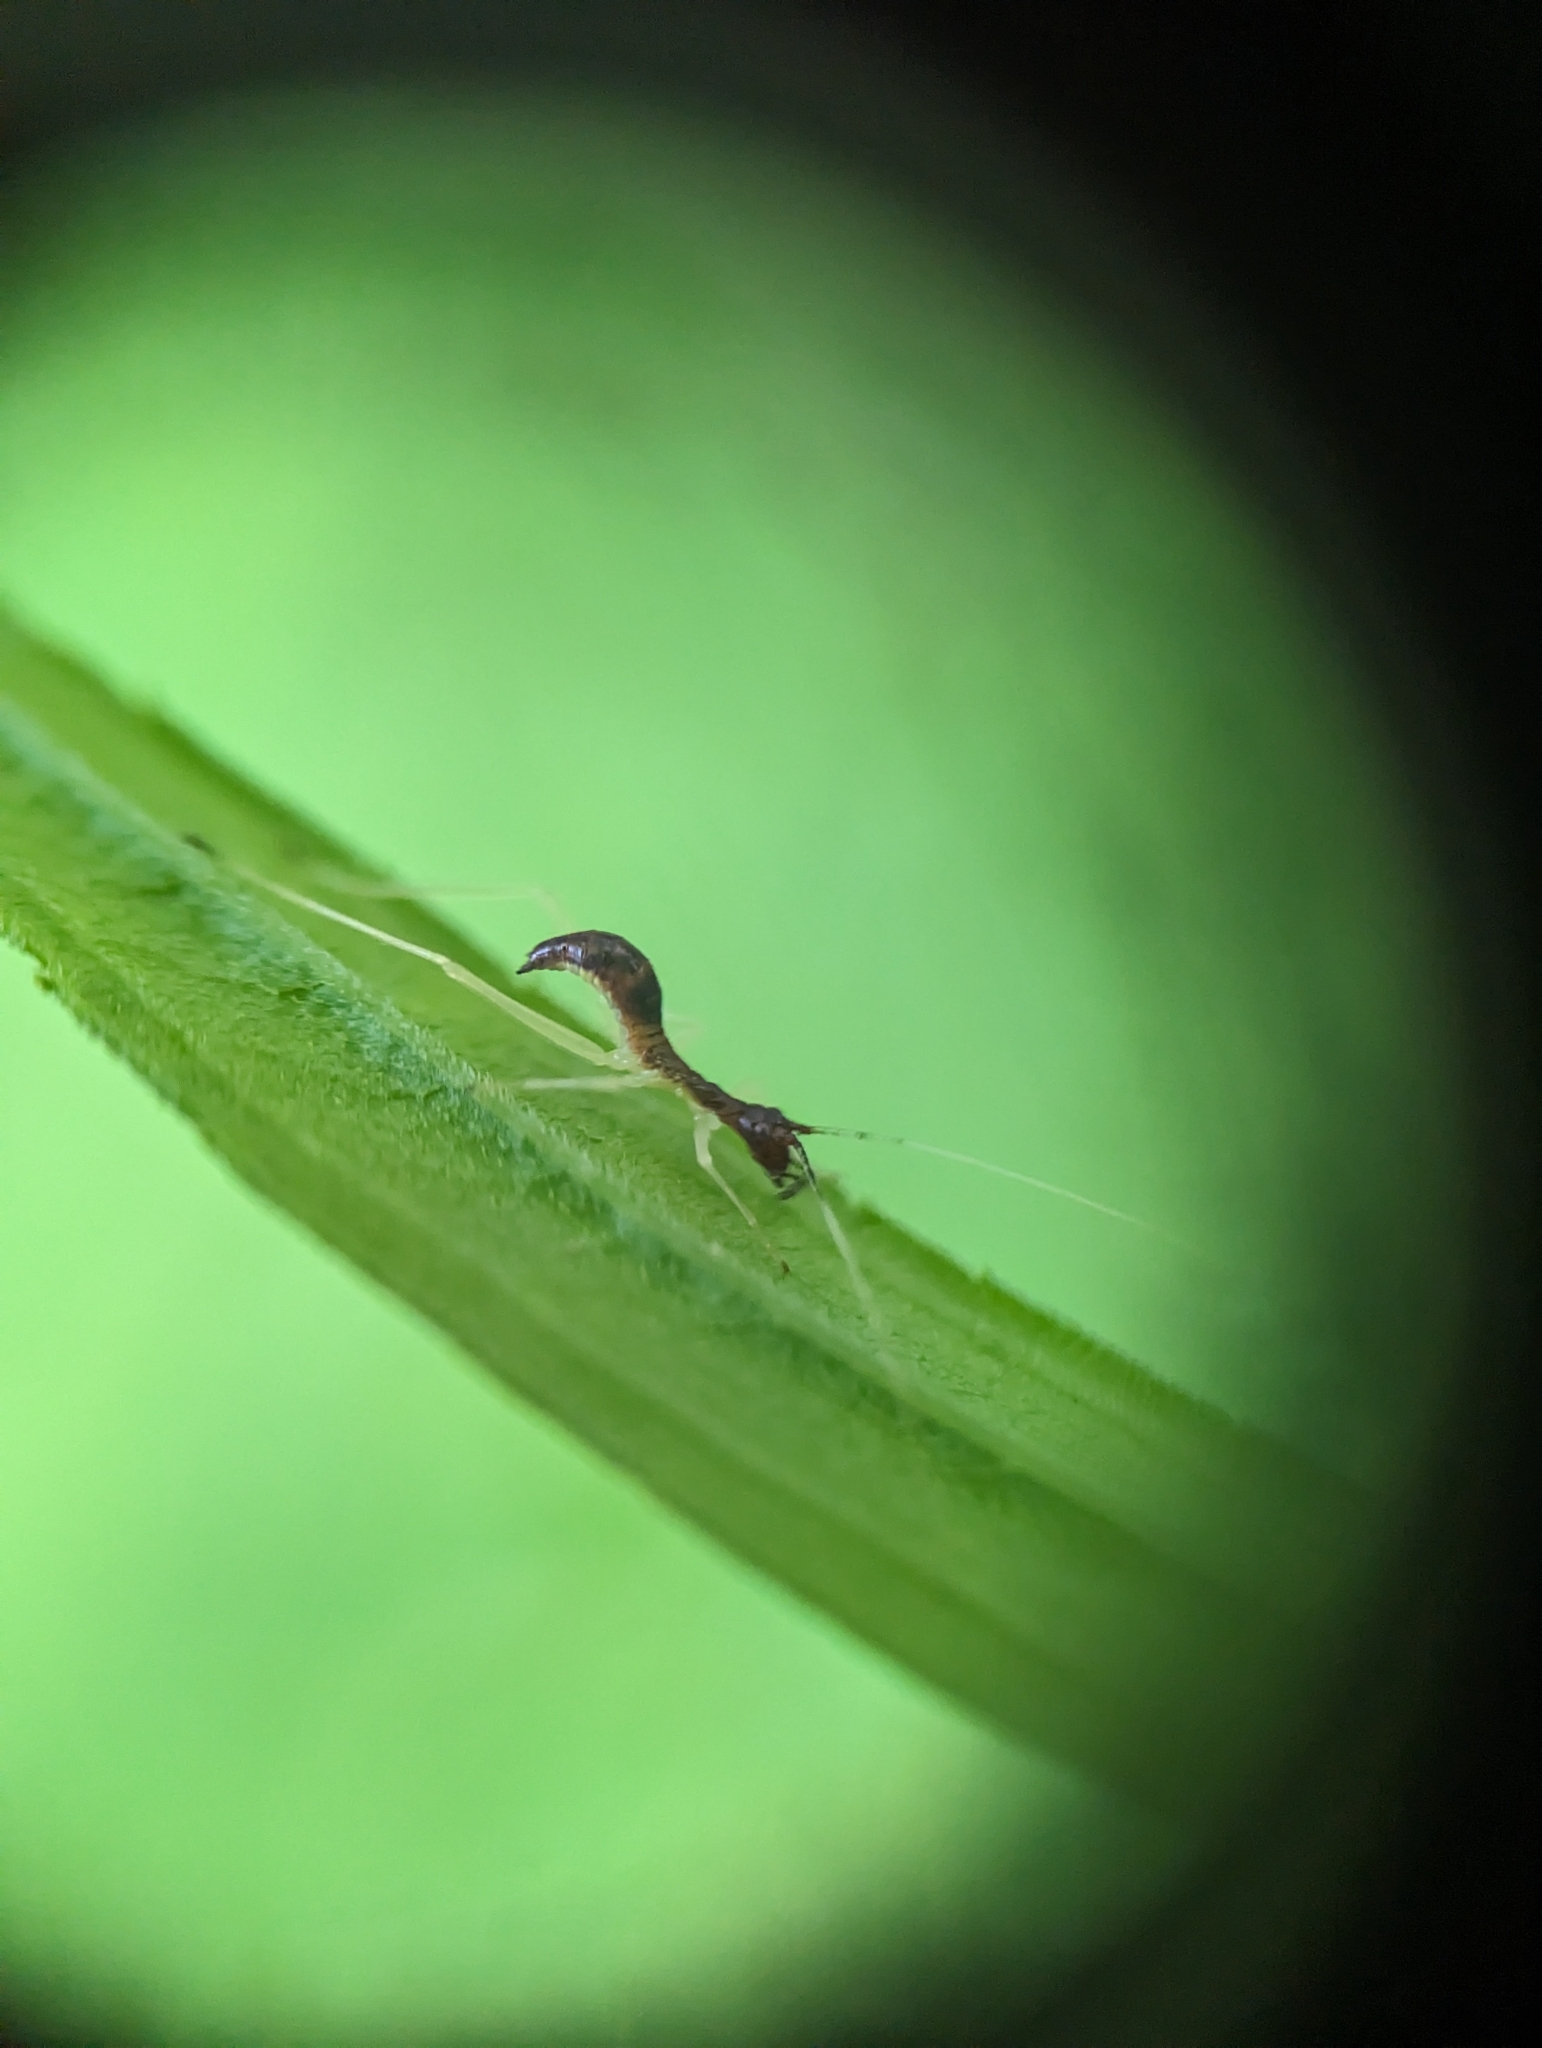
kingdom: Animalia
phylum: Arthropoda
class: Insecta
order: Orthoptera
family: Gryllidae
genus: Neoxabea
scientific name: Neoxabea bipunctata
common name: Two-spotted tree cricket
